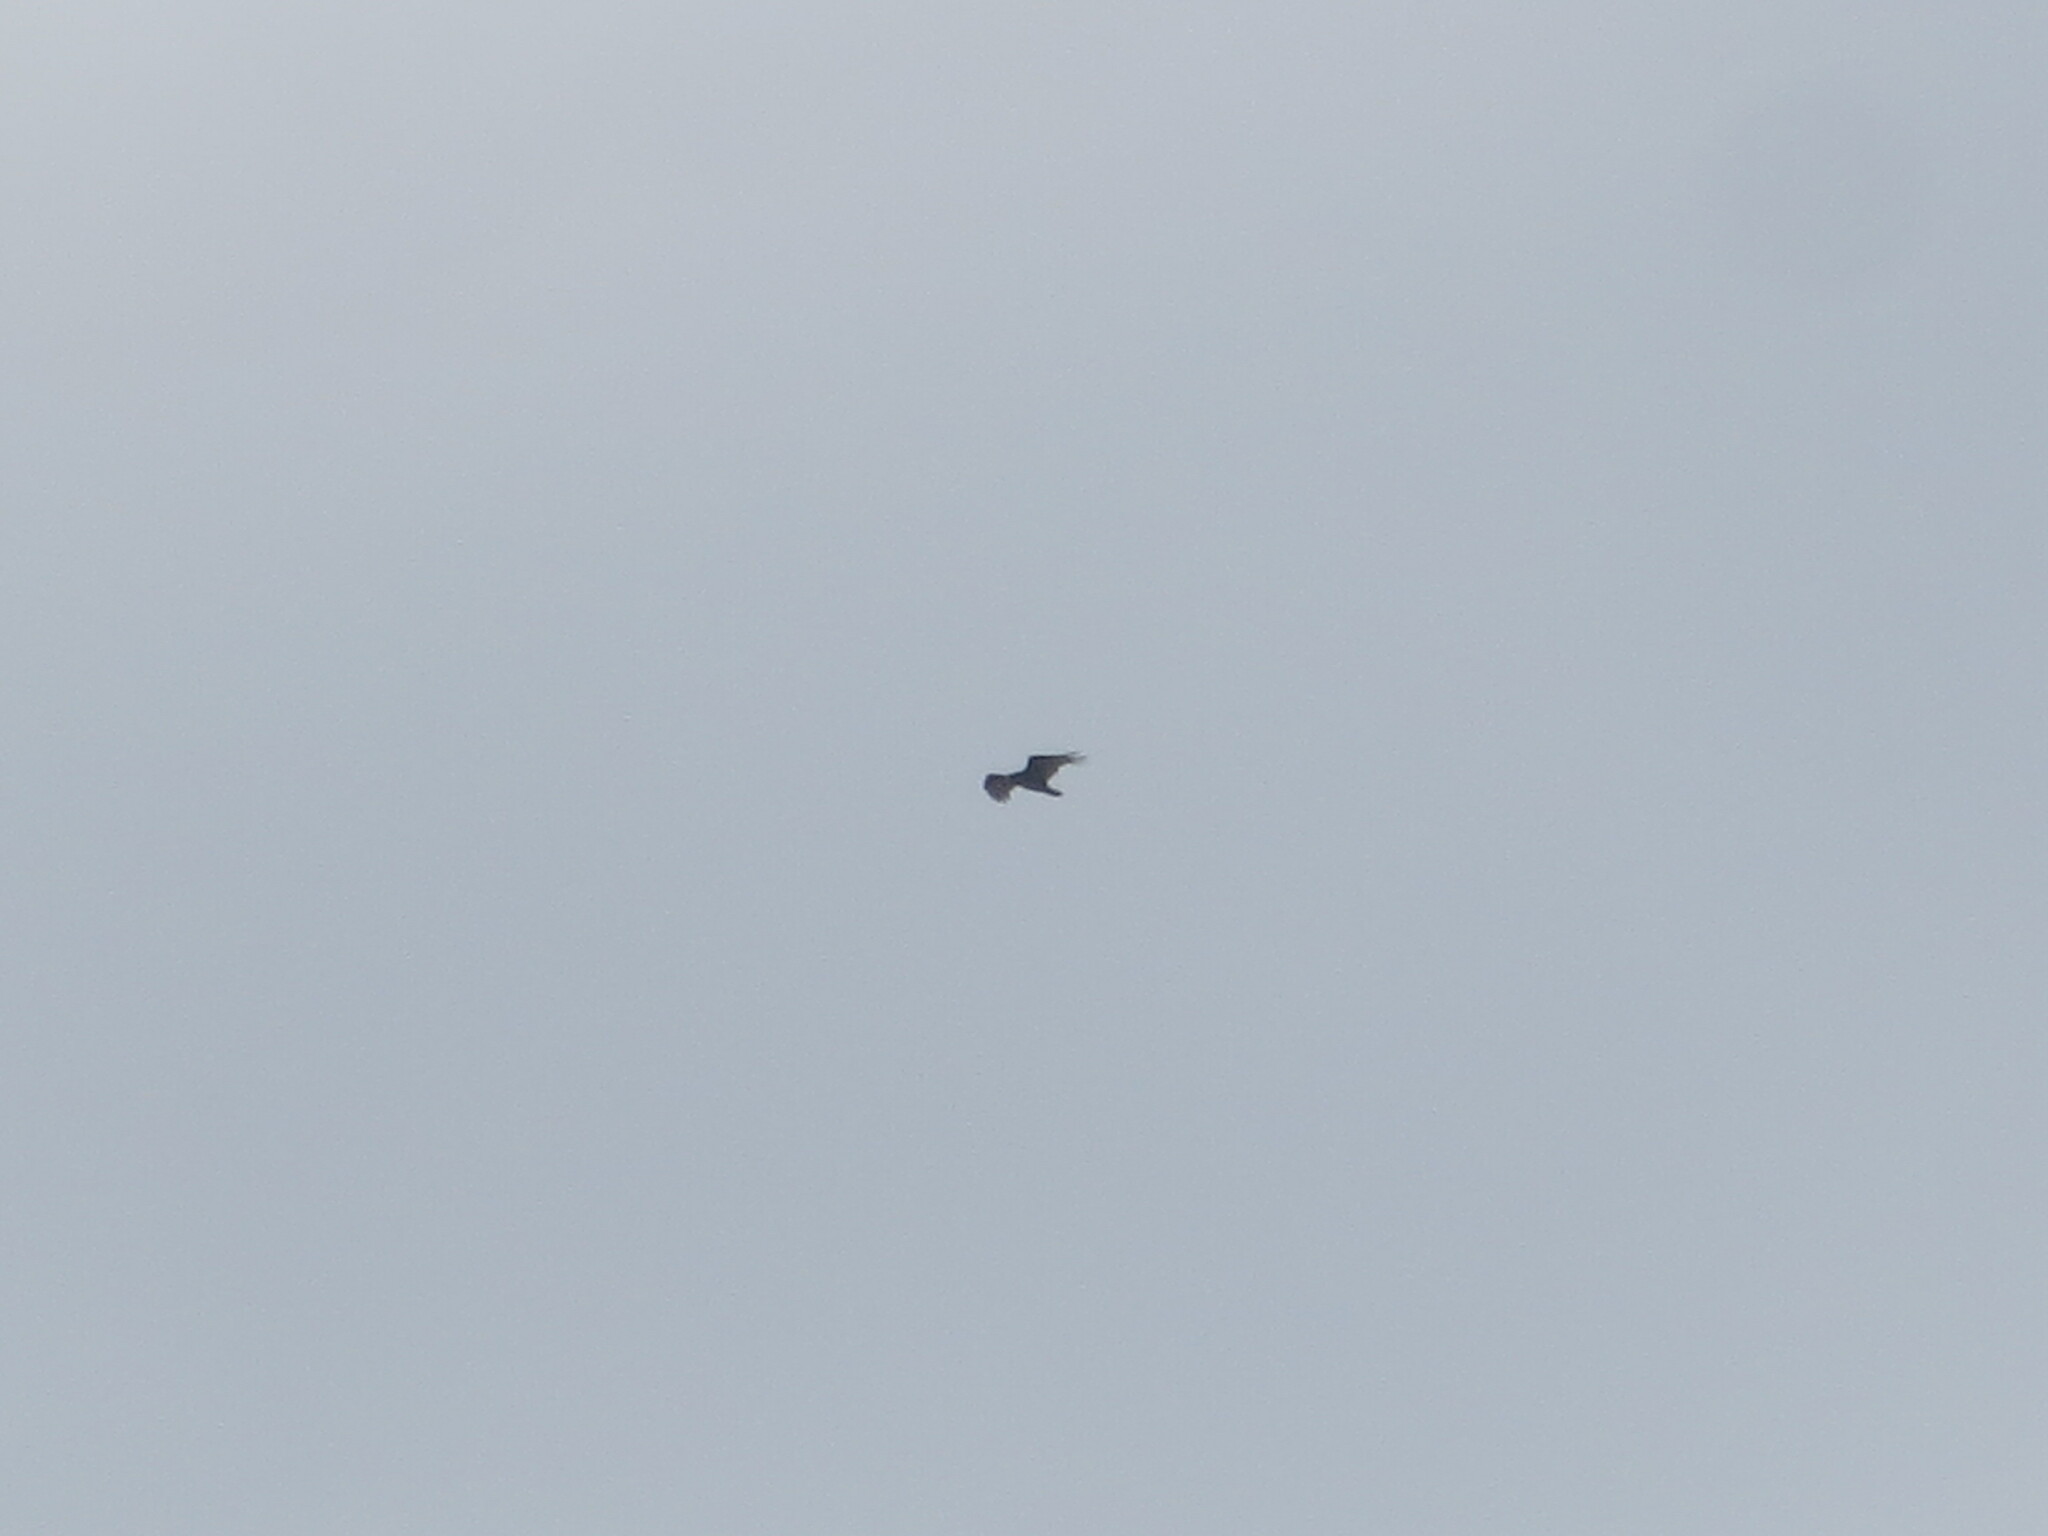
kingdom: Animalia
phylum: Chordata
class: Aves
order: Accipitriformes
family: Cathartidae
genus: Cathartes
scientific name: Cathartes aura
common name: Turkey vulture
